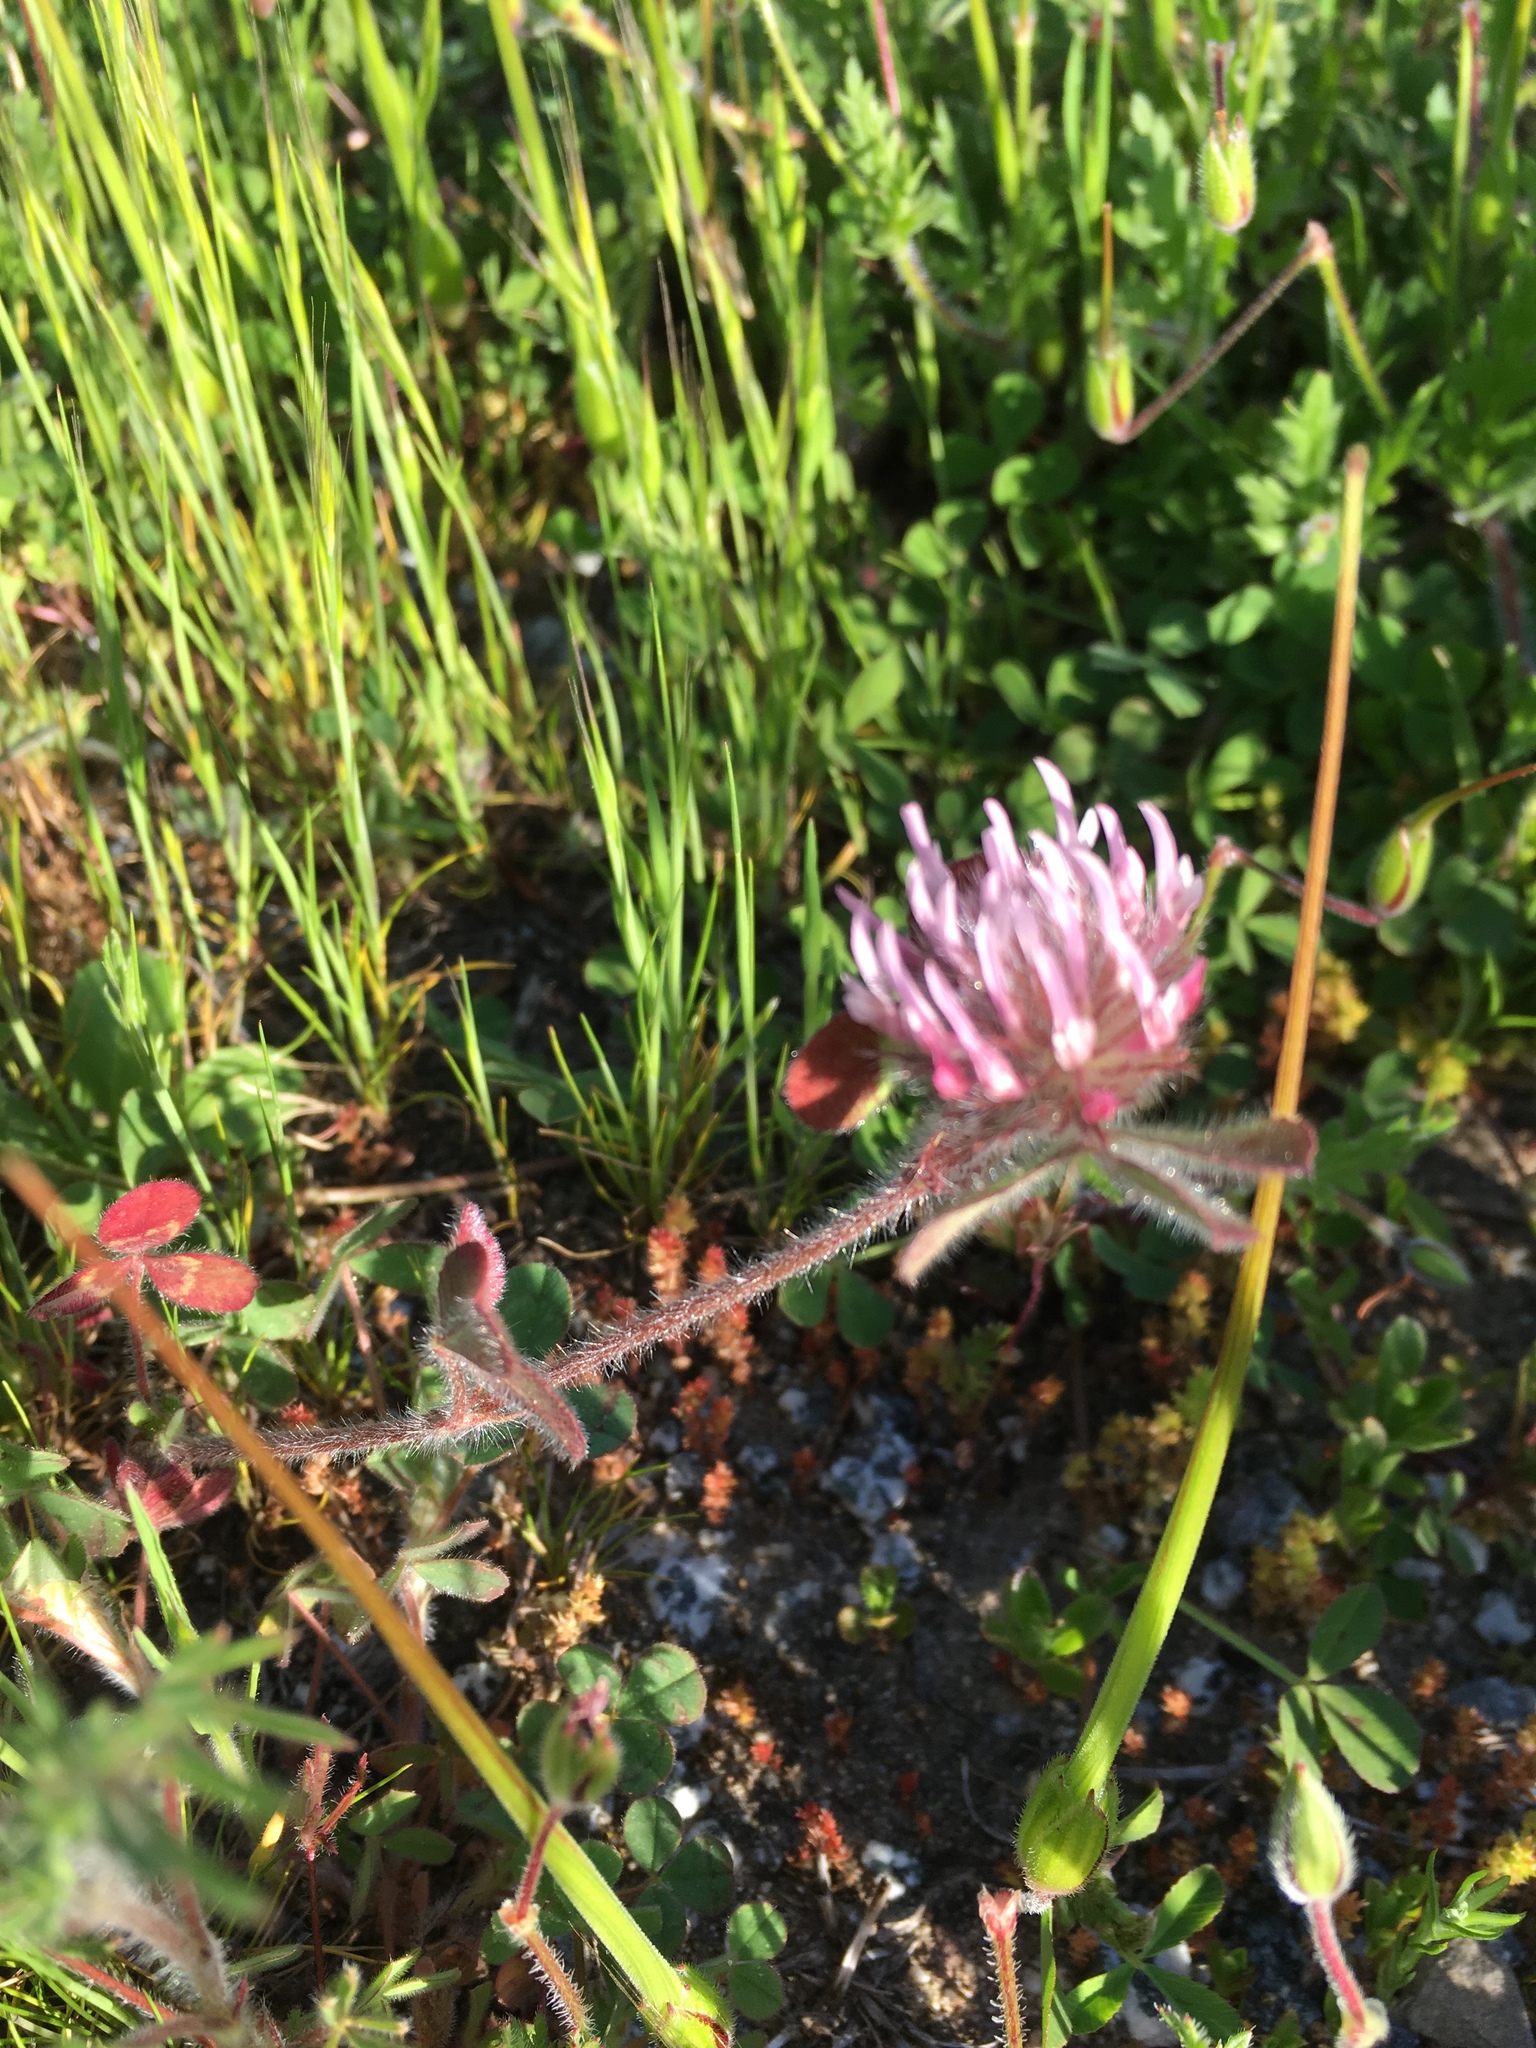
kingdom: Plantae
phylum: Tracheophyta
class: Magnoliopsida
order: Fabales
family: Fabaceae
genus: Trifolium
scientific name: Trifolium hirtum
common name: Rose clover
